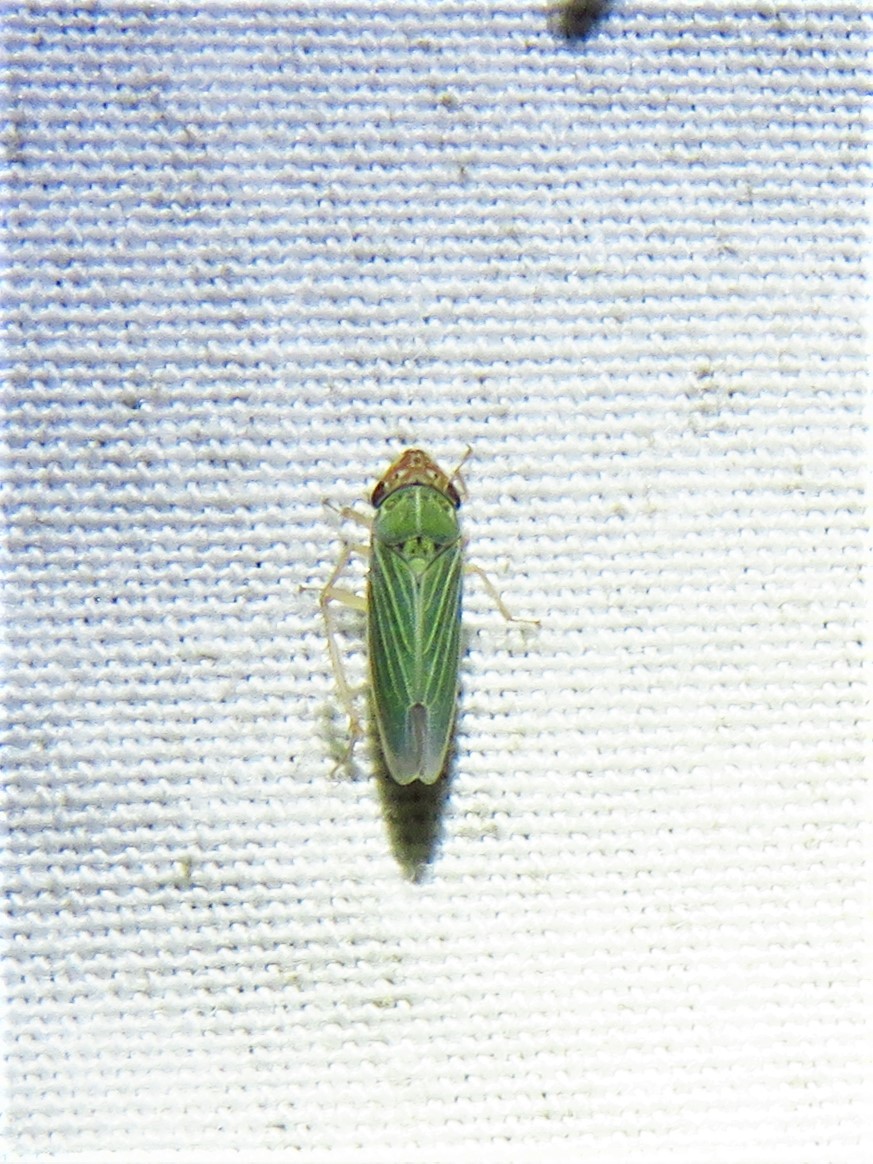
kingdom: Animalia
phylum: Arthropoda
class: Insecta
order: Hemiptera
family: Cicadellidae
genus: Xyphon
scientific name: Xyphon reticulatum
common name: Planthopper
